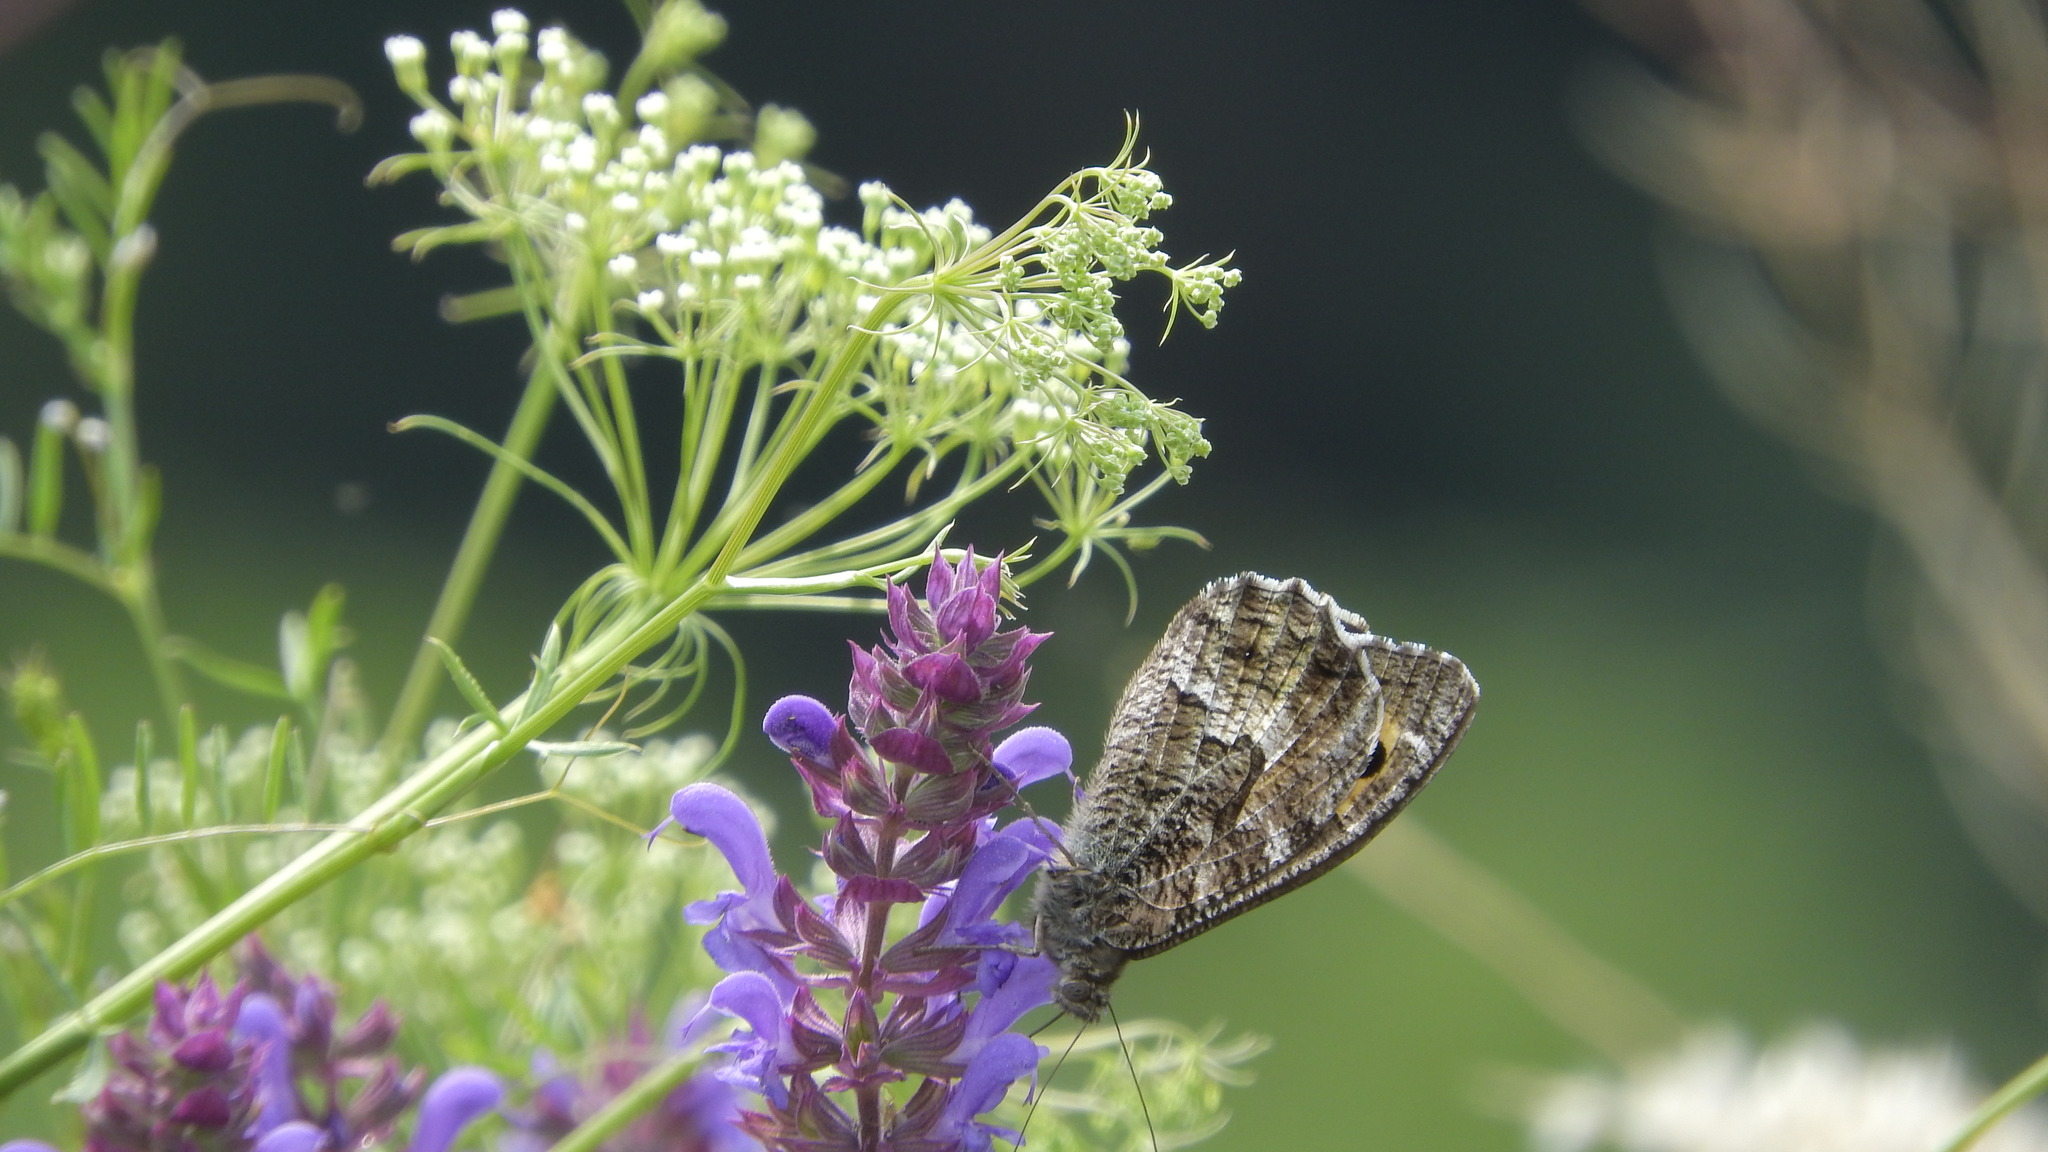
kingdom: Animalia
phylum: Arthropoda
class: Insecta
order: Lepidoptera
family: Nymphalidae
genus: Hipparchia
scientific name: Hipparchia semele
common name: Grayling
